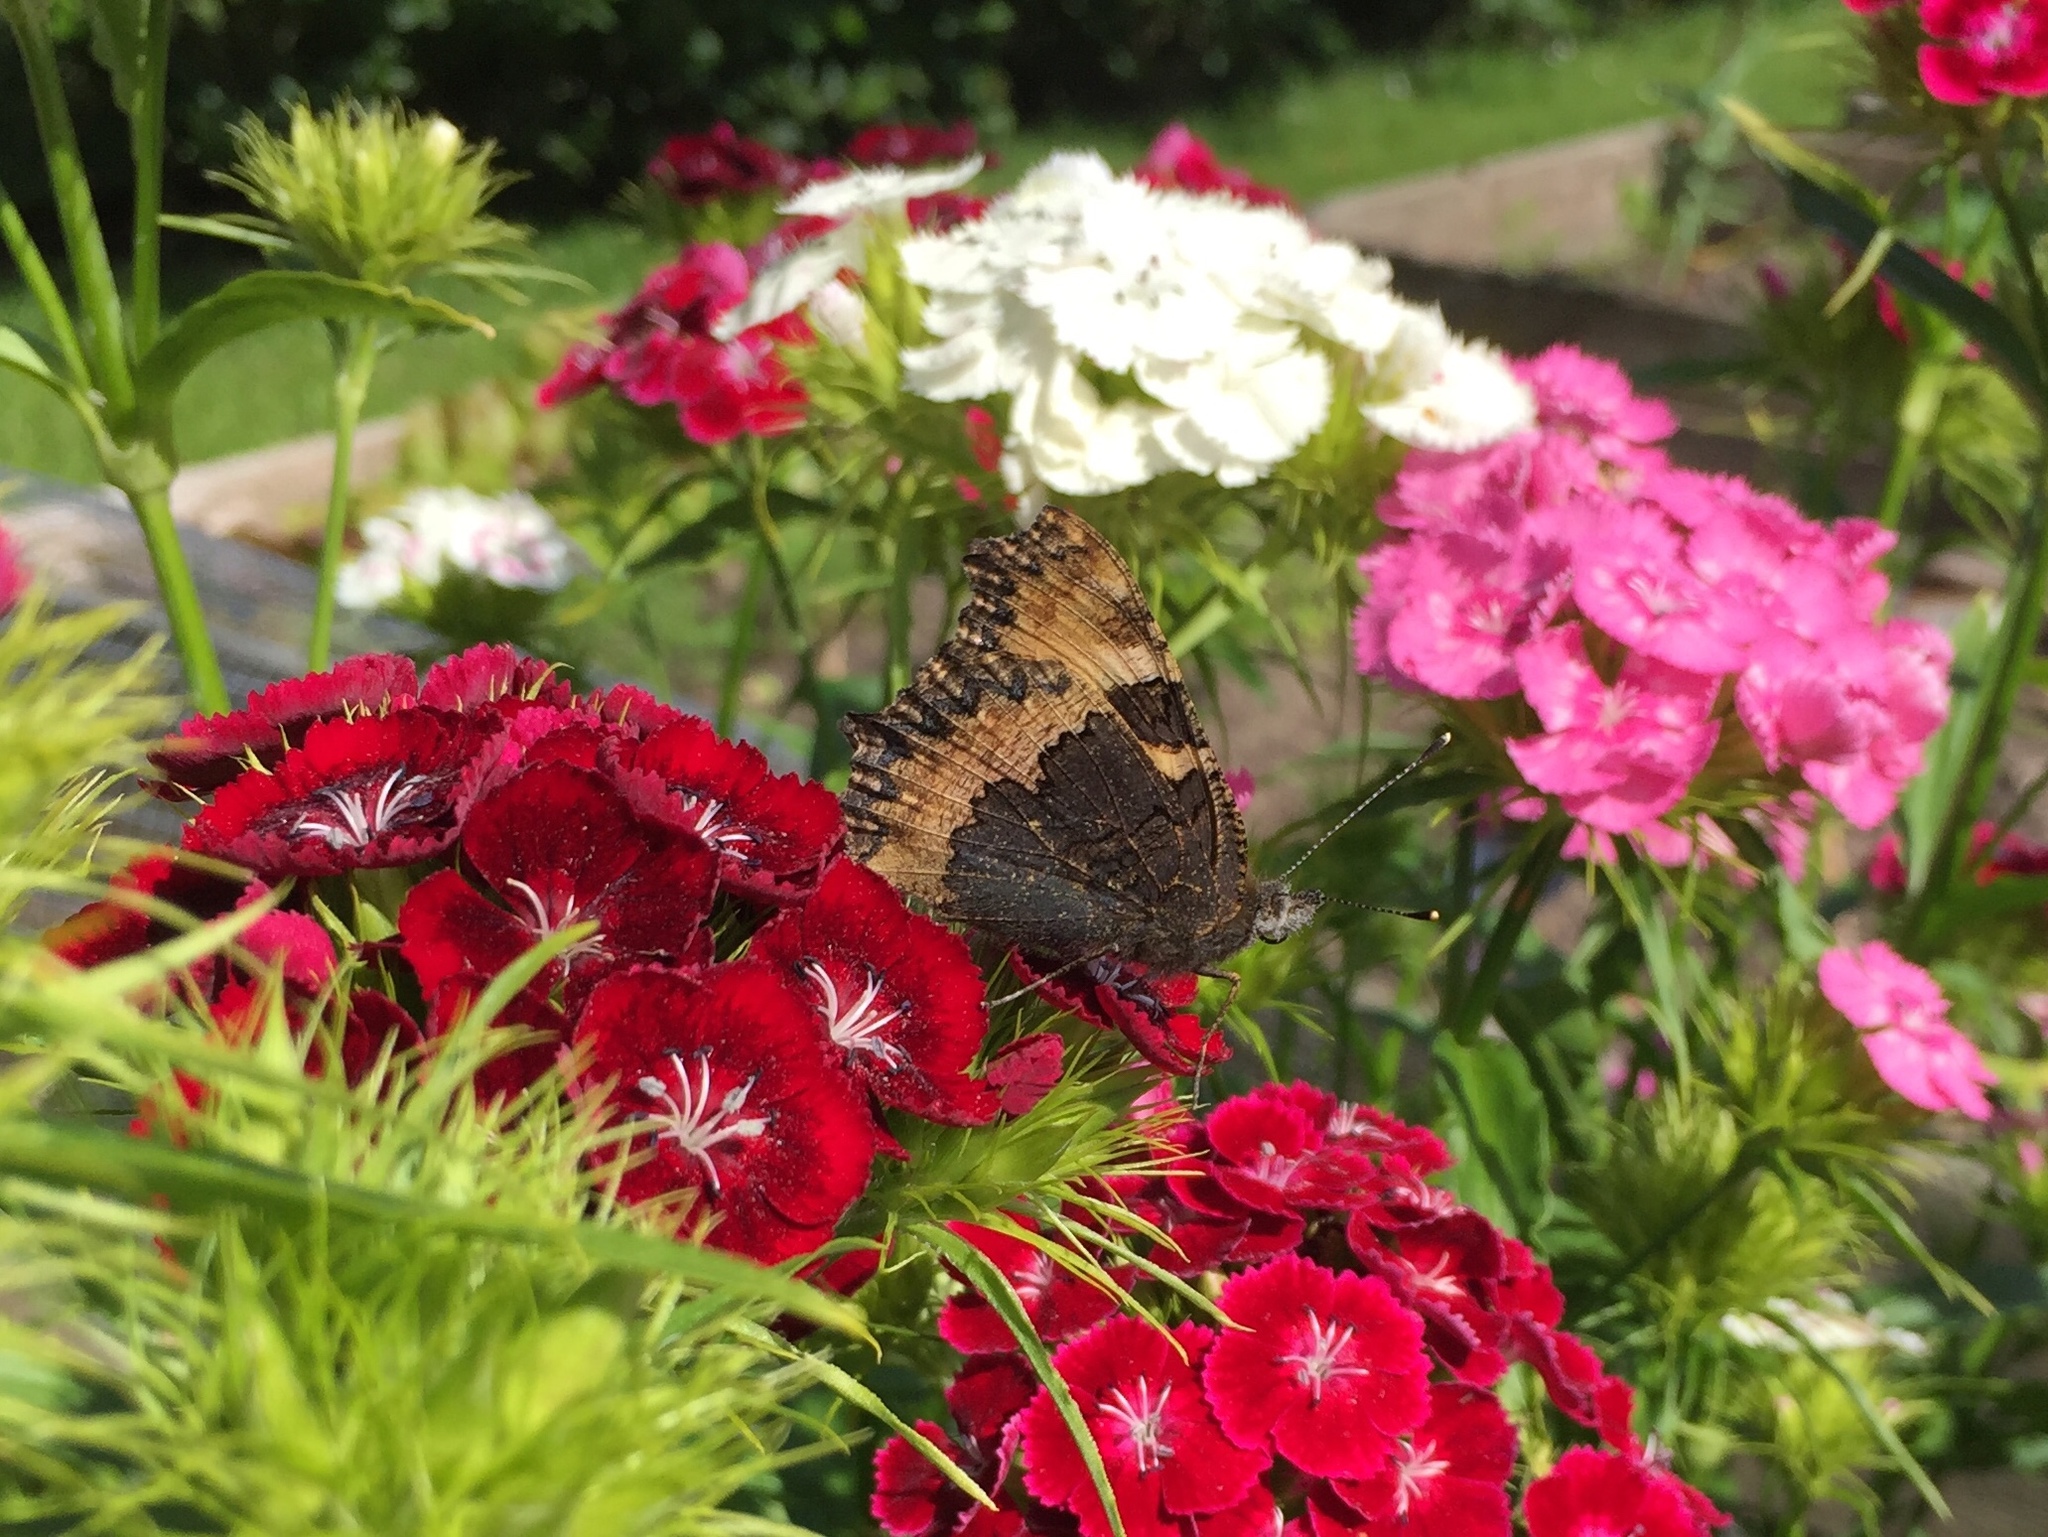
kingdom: Animalia
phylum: Arthropoda
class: Insecta
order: Lepidoptera
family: Nymphalidae
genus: Aglais
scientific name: Aglais urticae
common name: Small tortoiseshell
